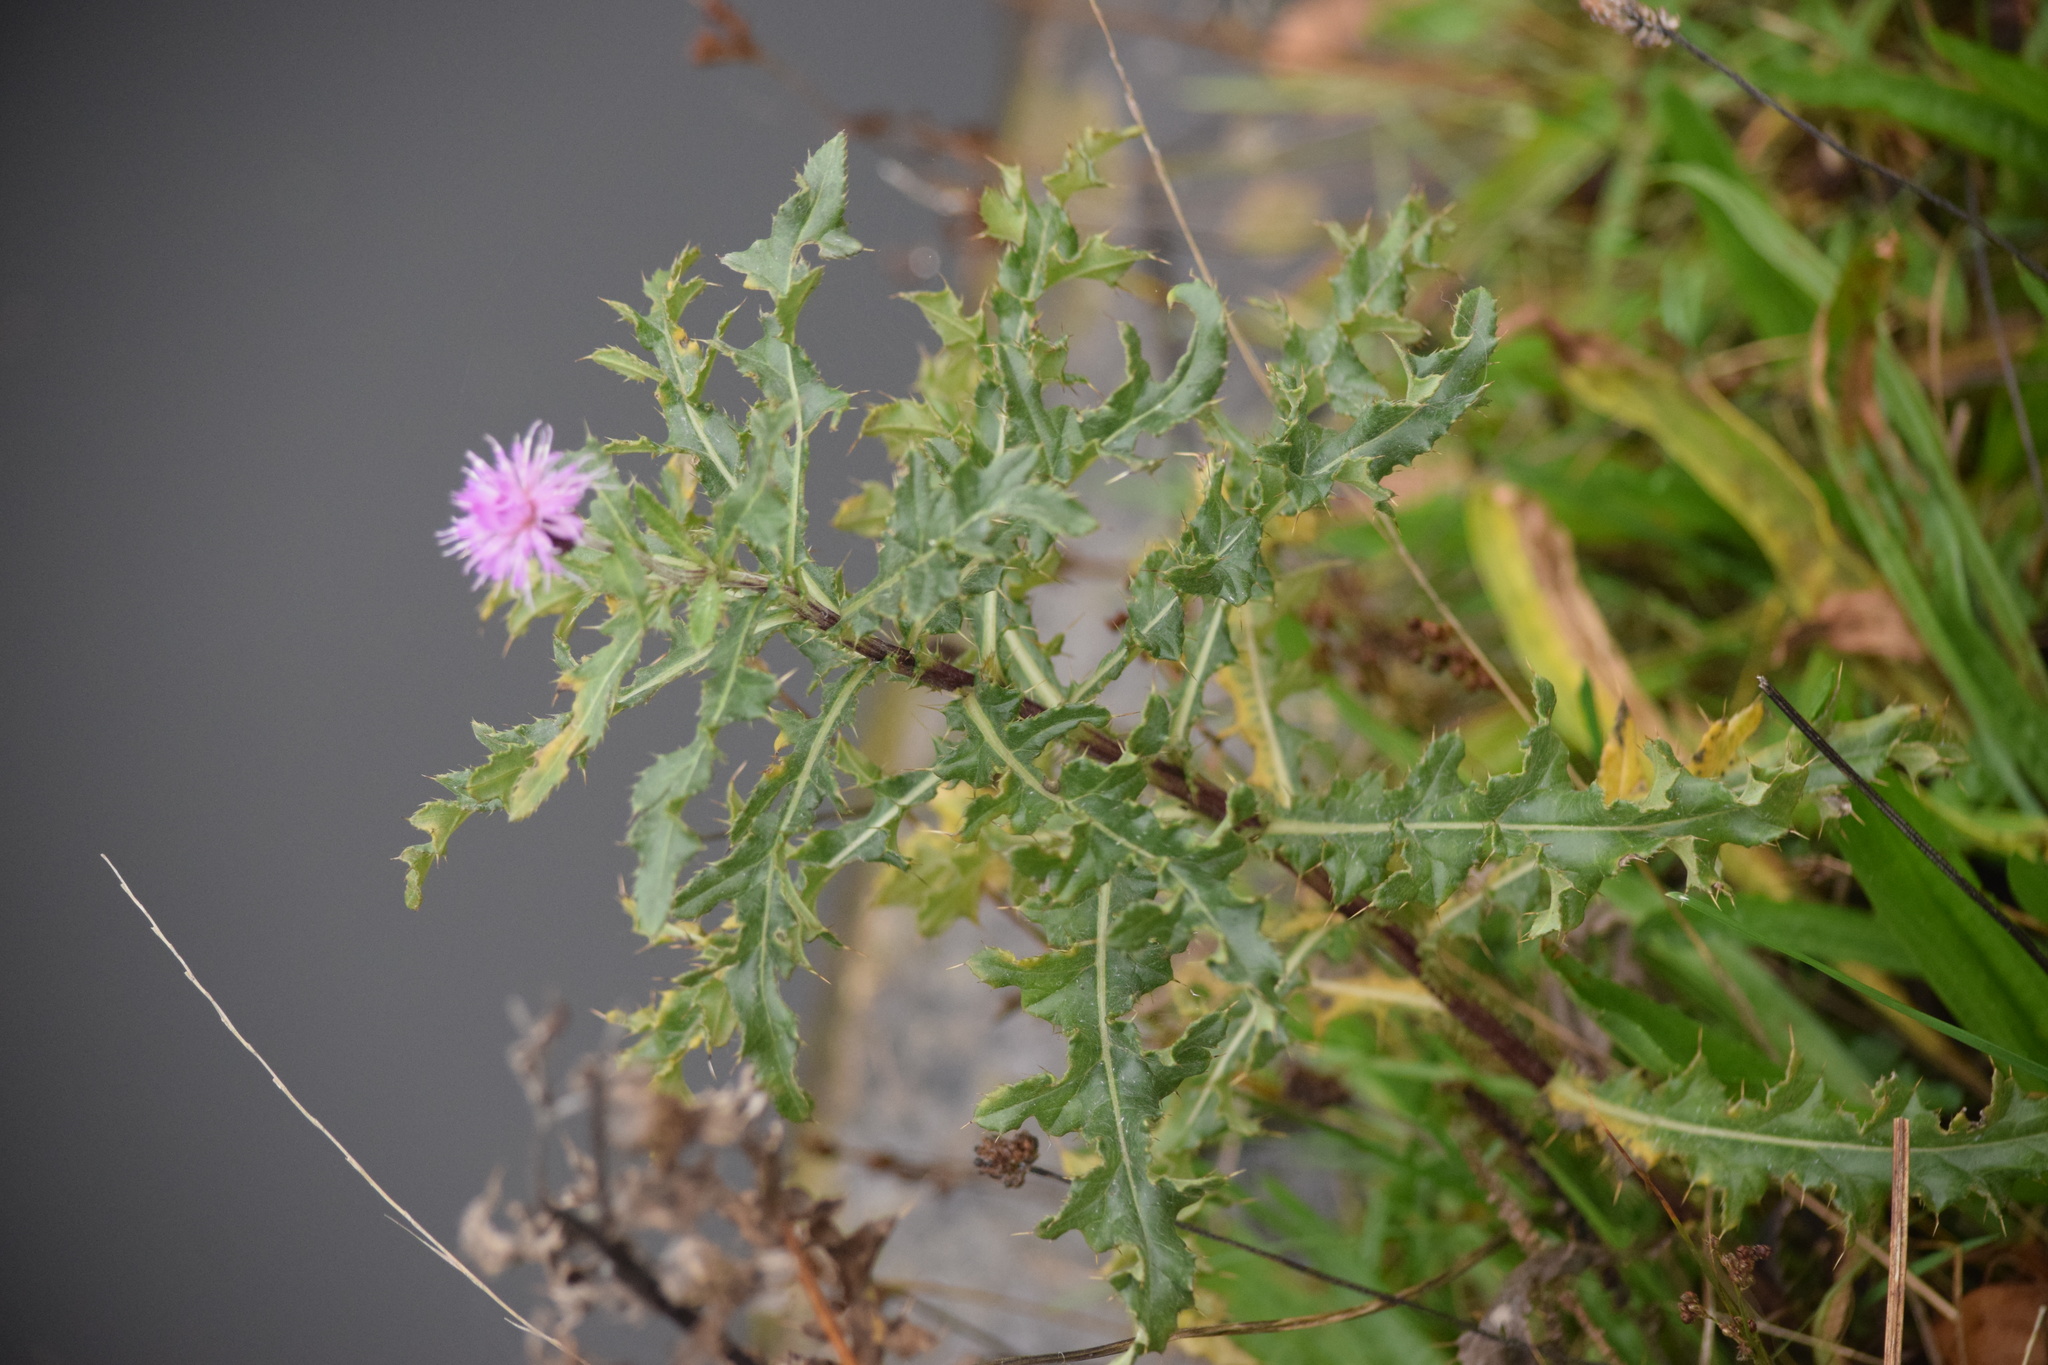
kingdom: Plantae
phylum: Tracheophyta
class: Magnoliopsida
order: Asterales
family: Asteraceae
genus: Cirsium
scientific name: Cirsium arvense
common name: Creeping thistle
